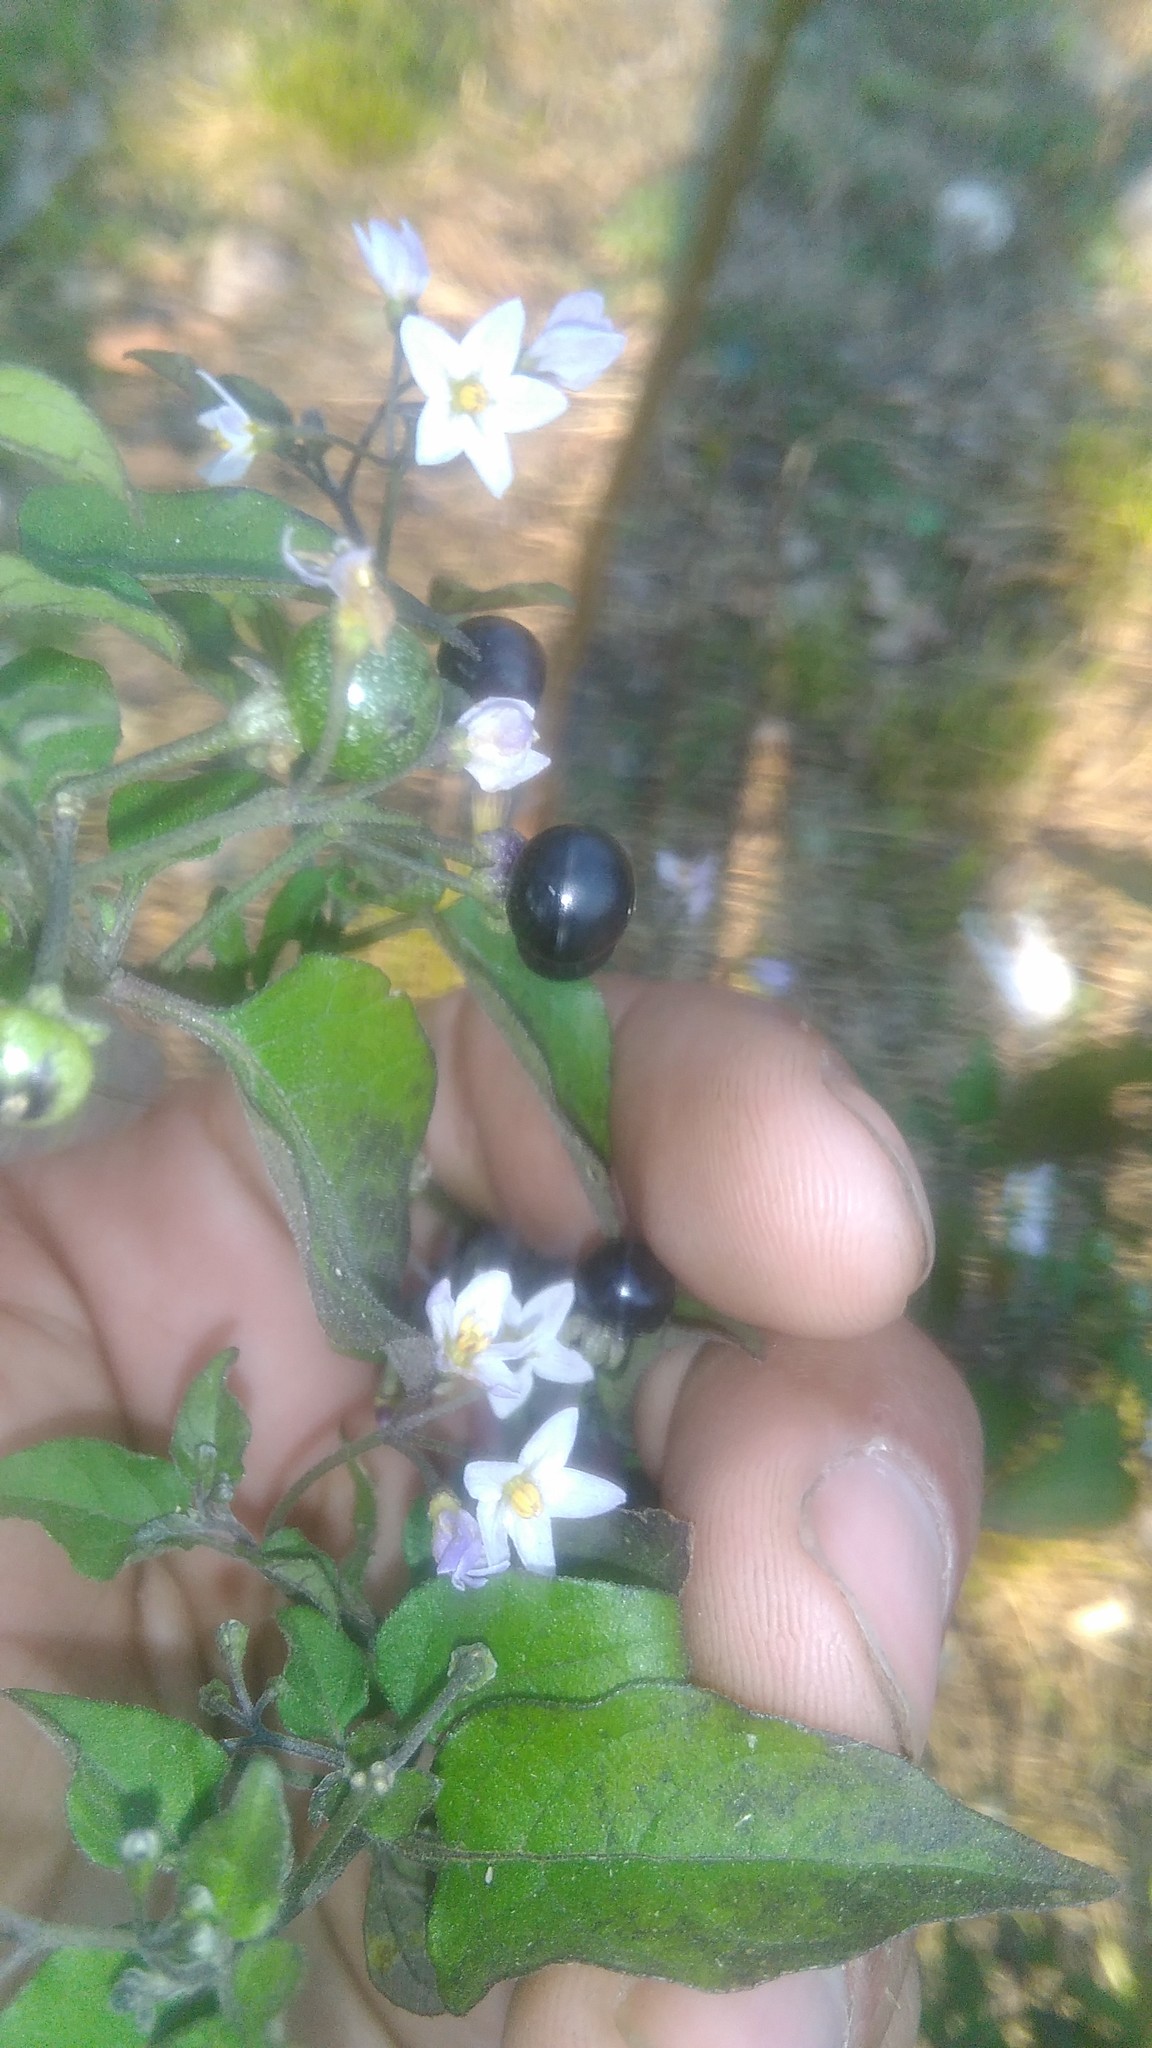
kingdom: Plantae
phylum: Tracheophyta
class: Magnoliopsida
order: Solanales
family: Solanaceae
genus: Solanum
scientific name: Solanum americanum
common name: American black nightshade
